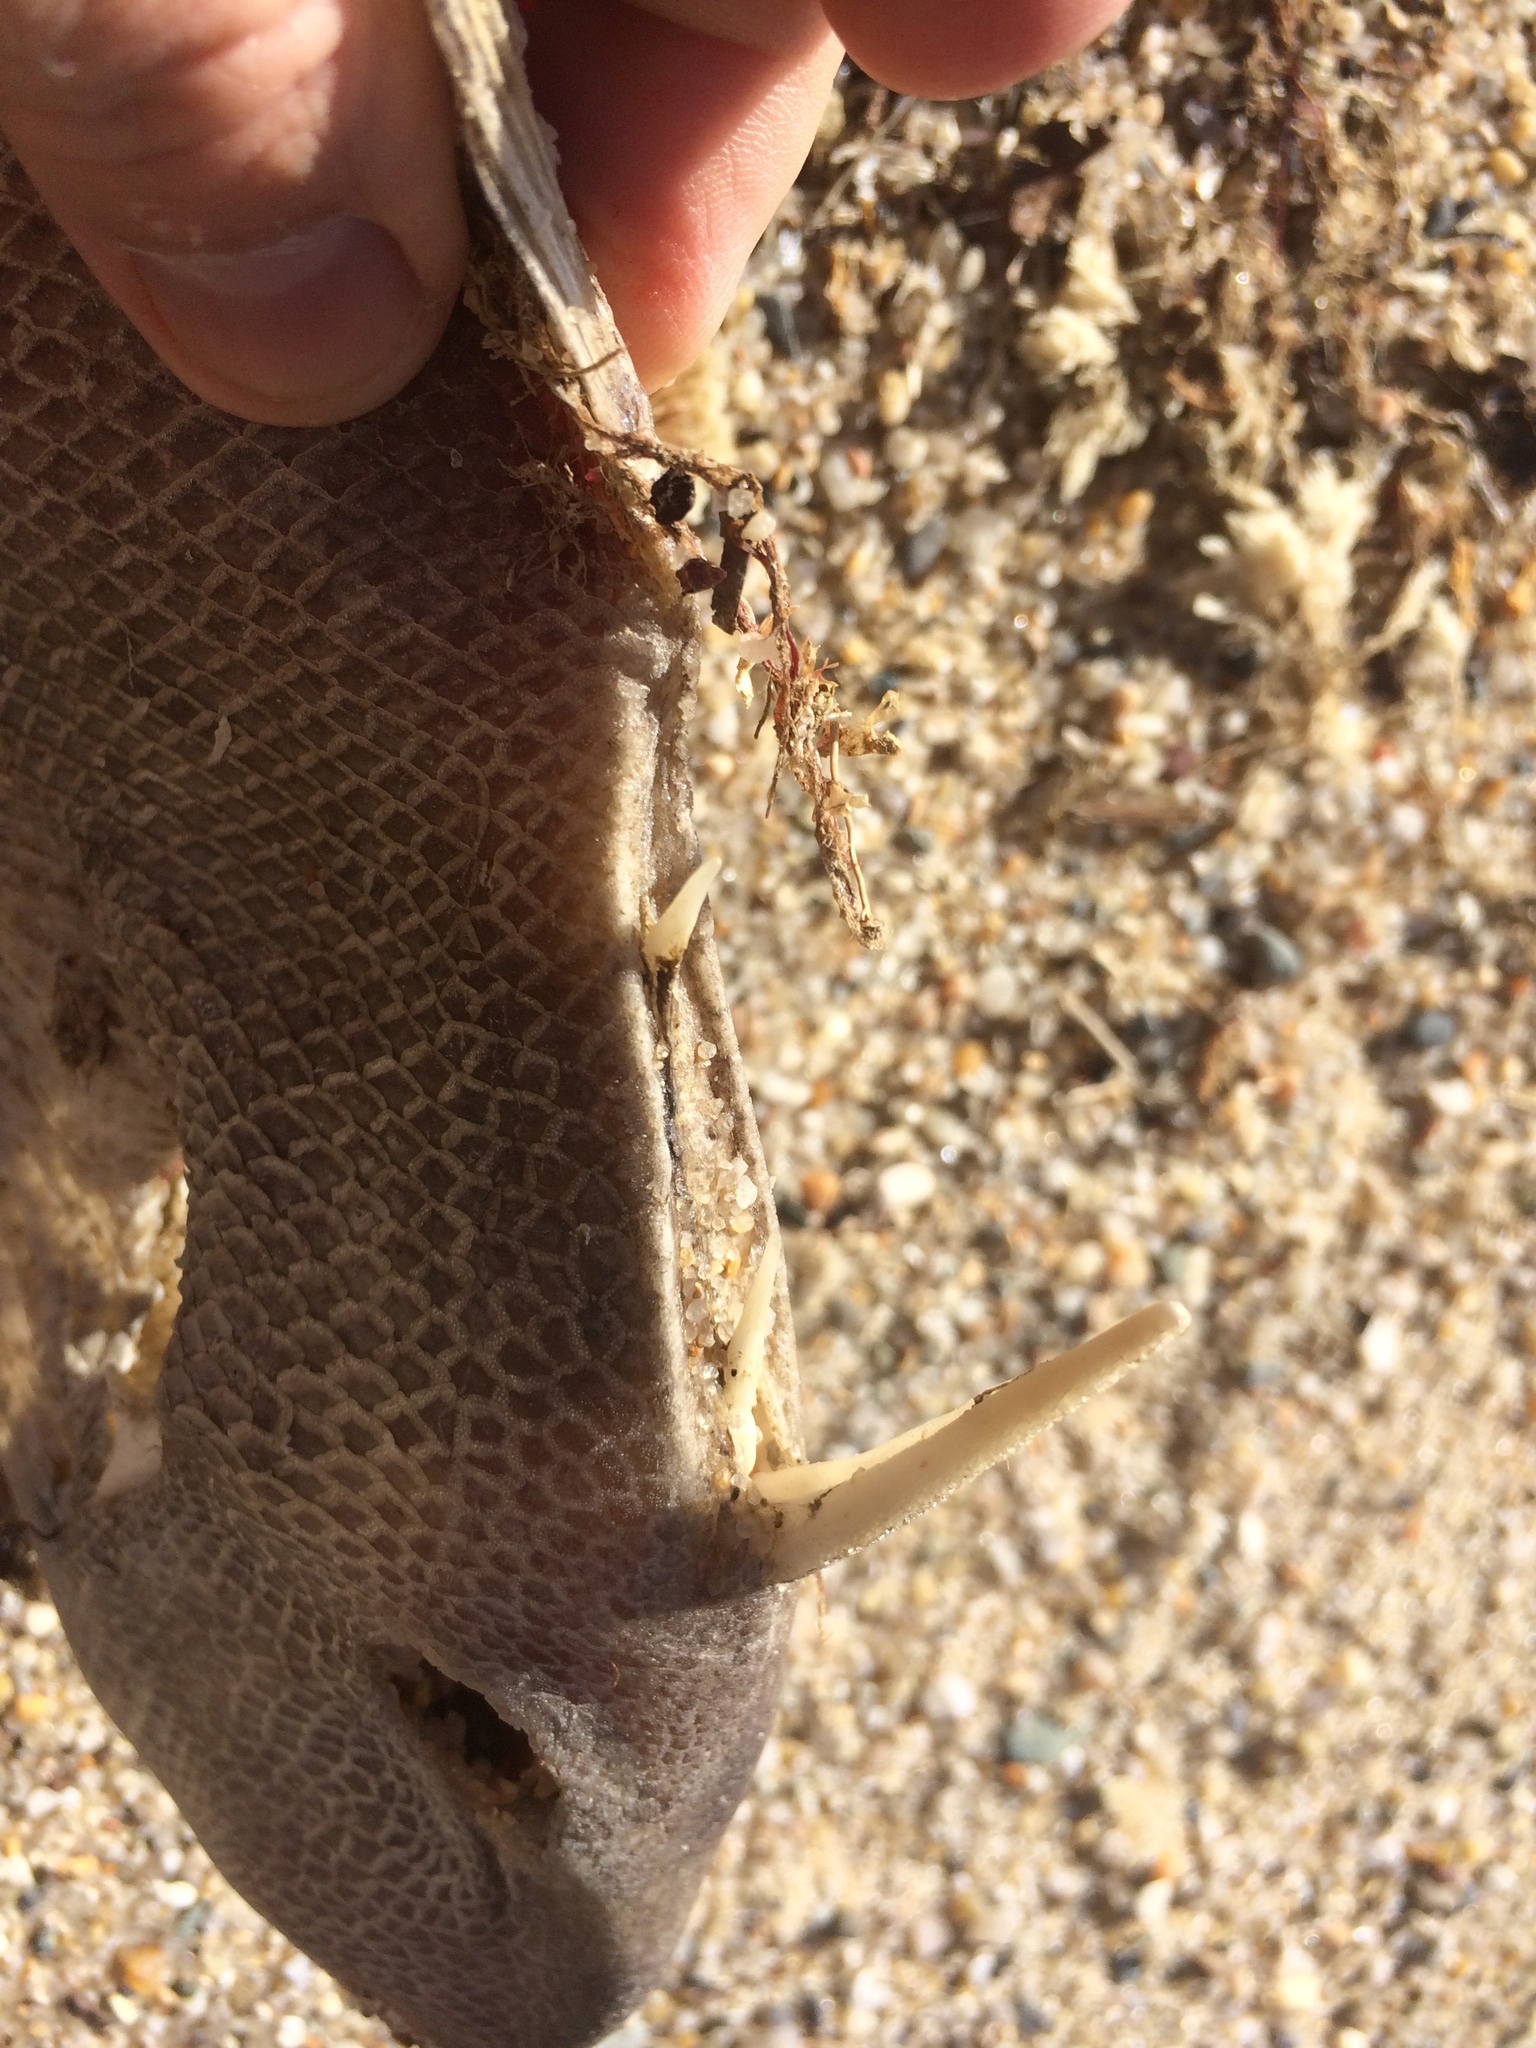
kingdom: Animalia
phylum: Chordata
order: Tetraodontiformes
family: Balistidae
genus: Balistes
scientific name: Balistes capriscus
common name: Grey triggerfish
